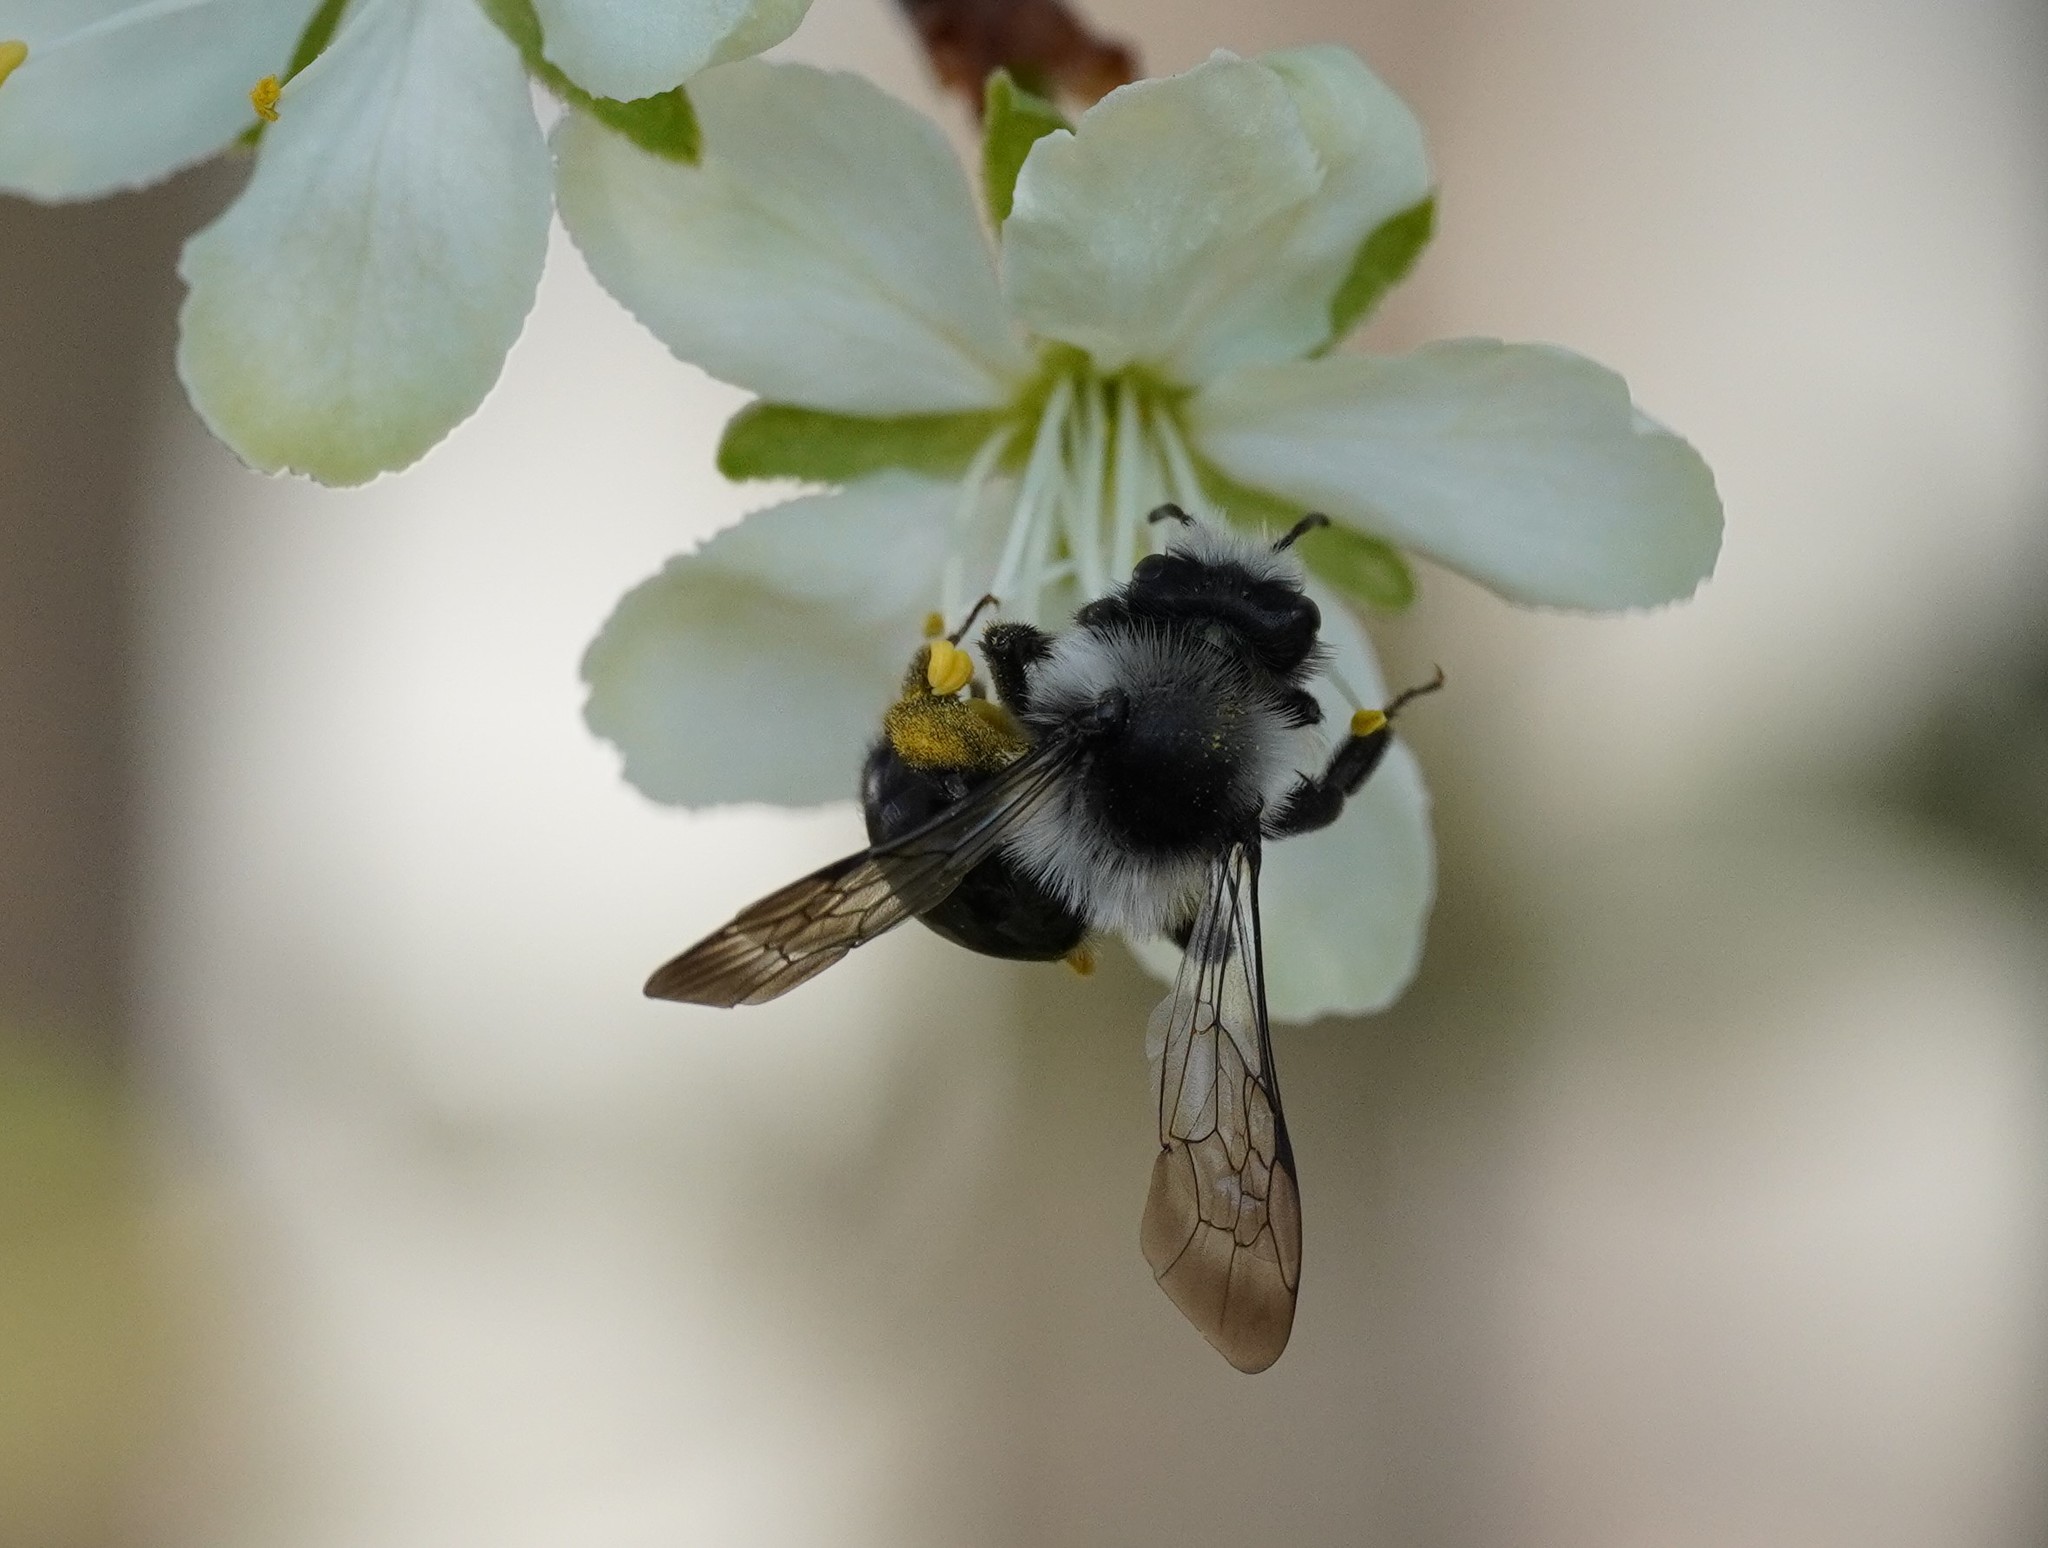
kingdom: Animalia
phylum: Arthropoda
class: Insecta
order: Hymenoptera
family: Andrenidae
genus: Andrena
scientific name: Andrena cineraria
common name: Ashy mining bee
